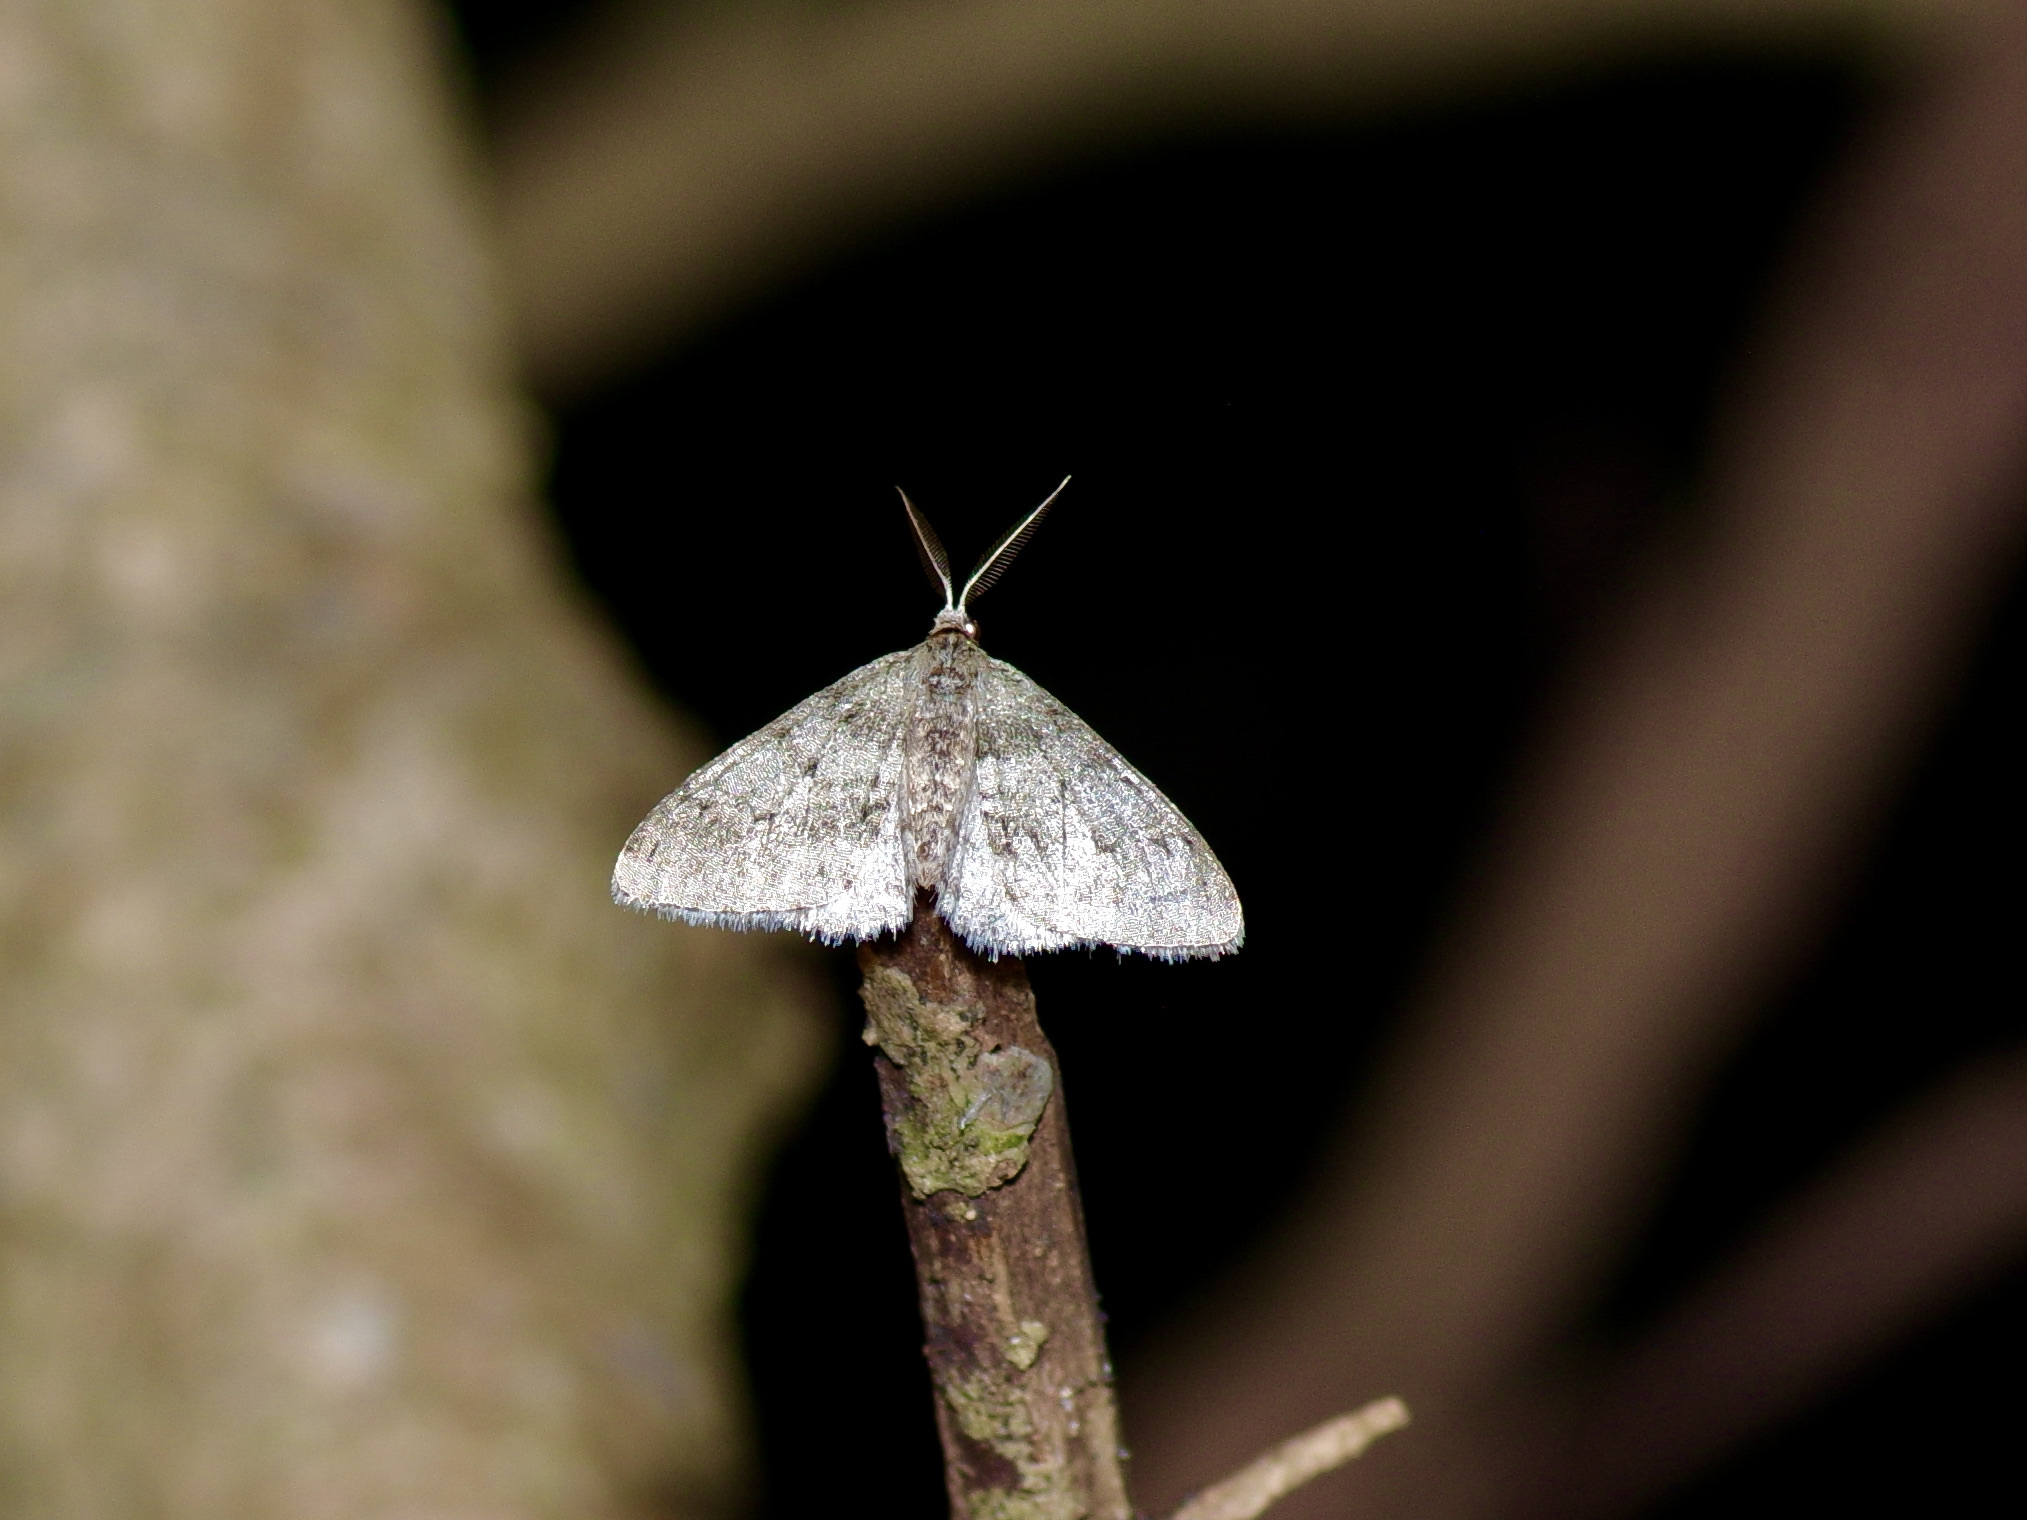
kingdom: Animalia
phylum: Arthropoda
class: Insecta
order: Lepidoptera
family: Geometridae
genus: Phigalia
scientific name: Phigalia strigataria
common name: Small phigalia
